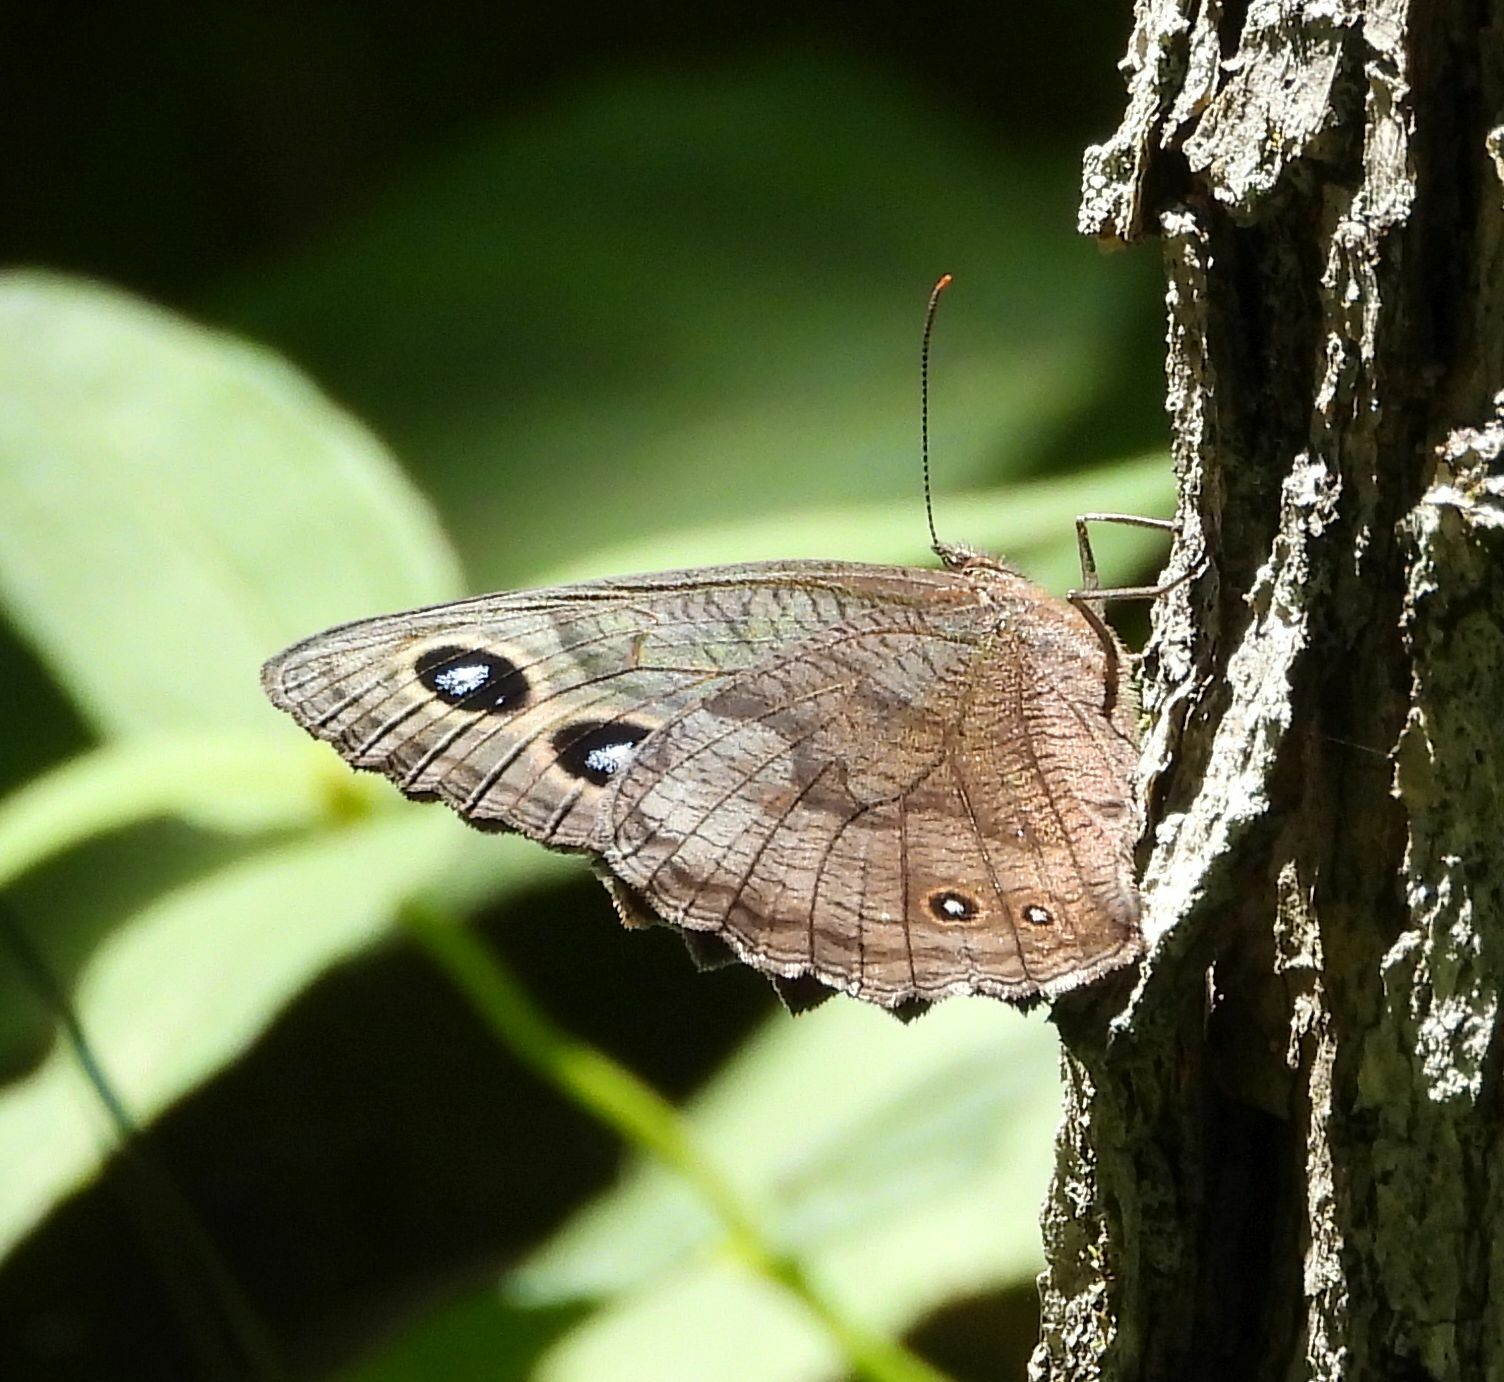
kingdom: Animalia
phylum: Arthropoda
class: Insecta
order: Lepidoptera
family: Nymphalidae
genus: Cercyonis
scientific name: Cercyonis pegala
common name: Common wood-nymph
